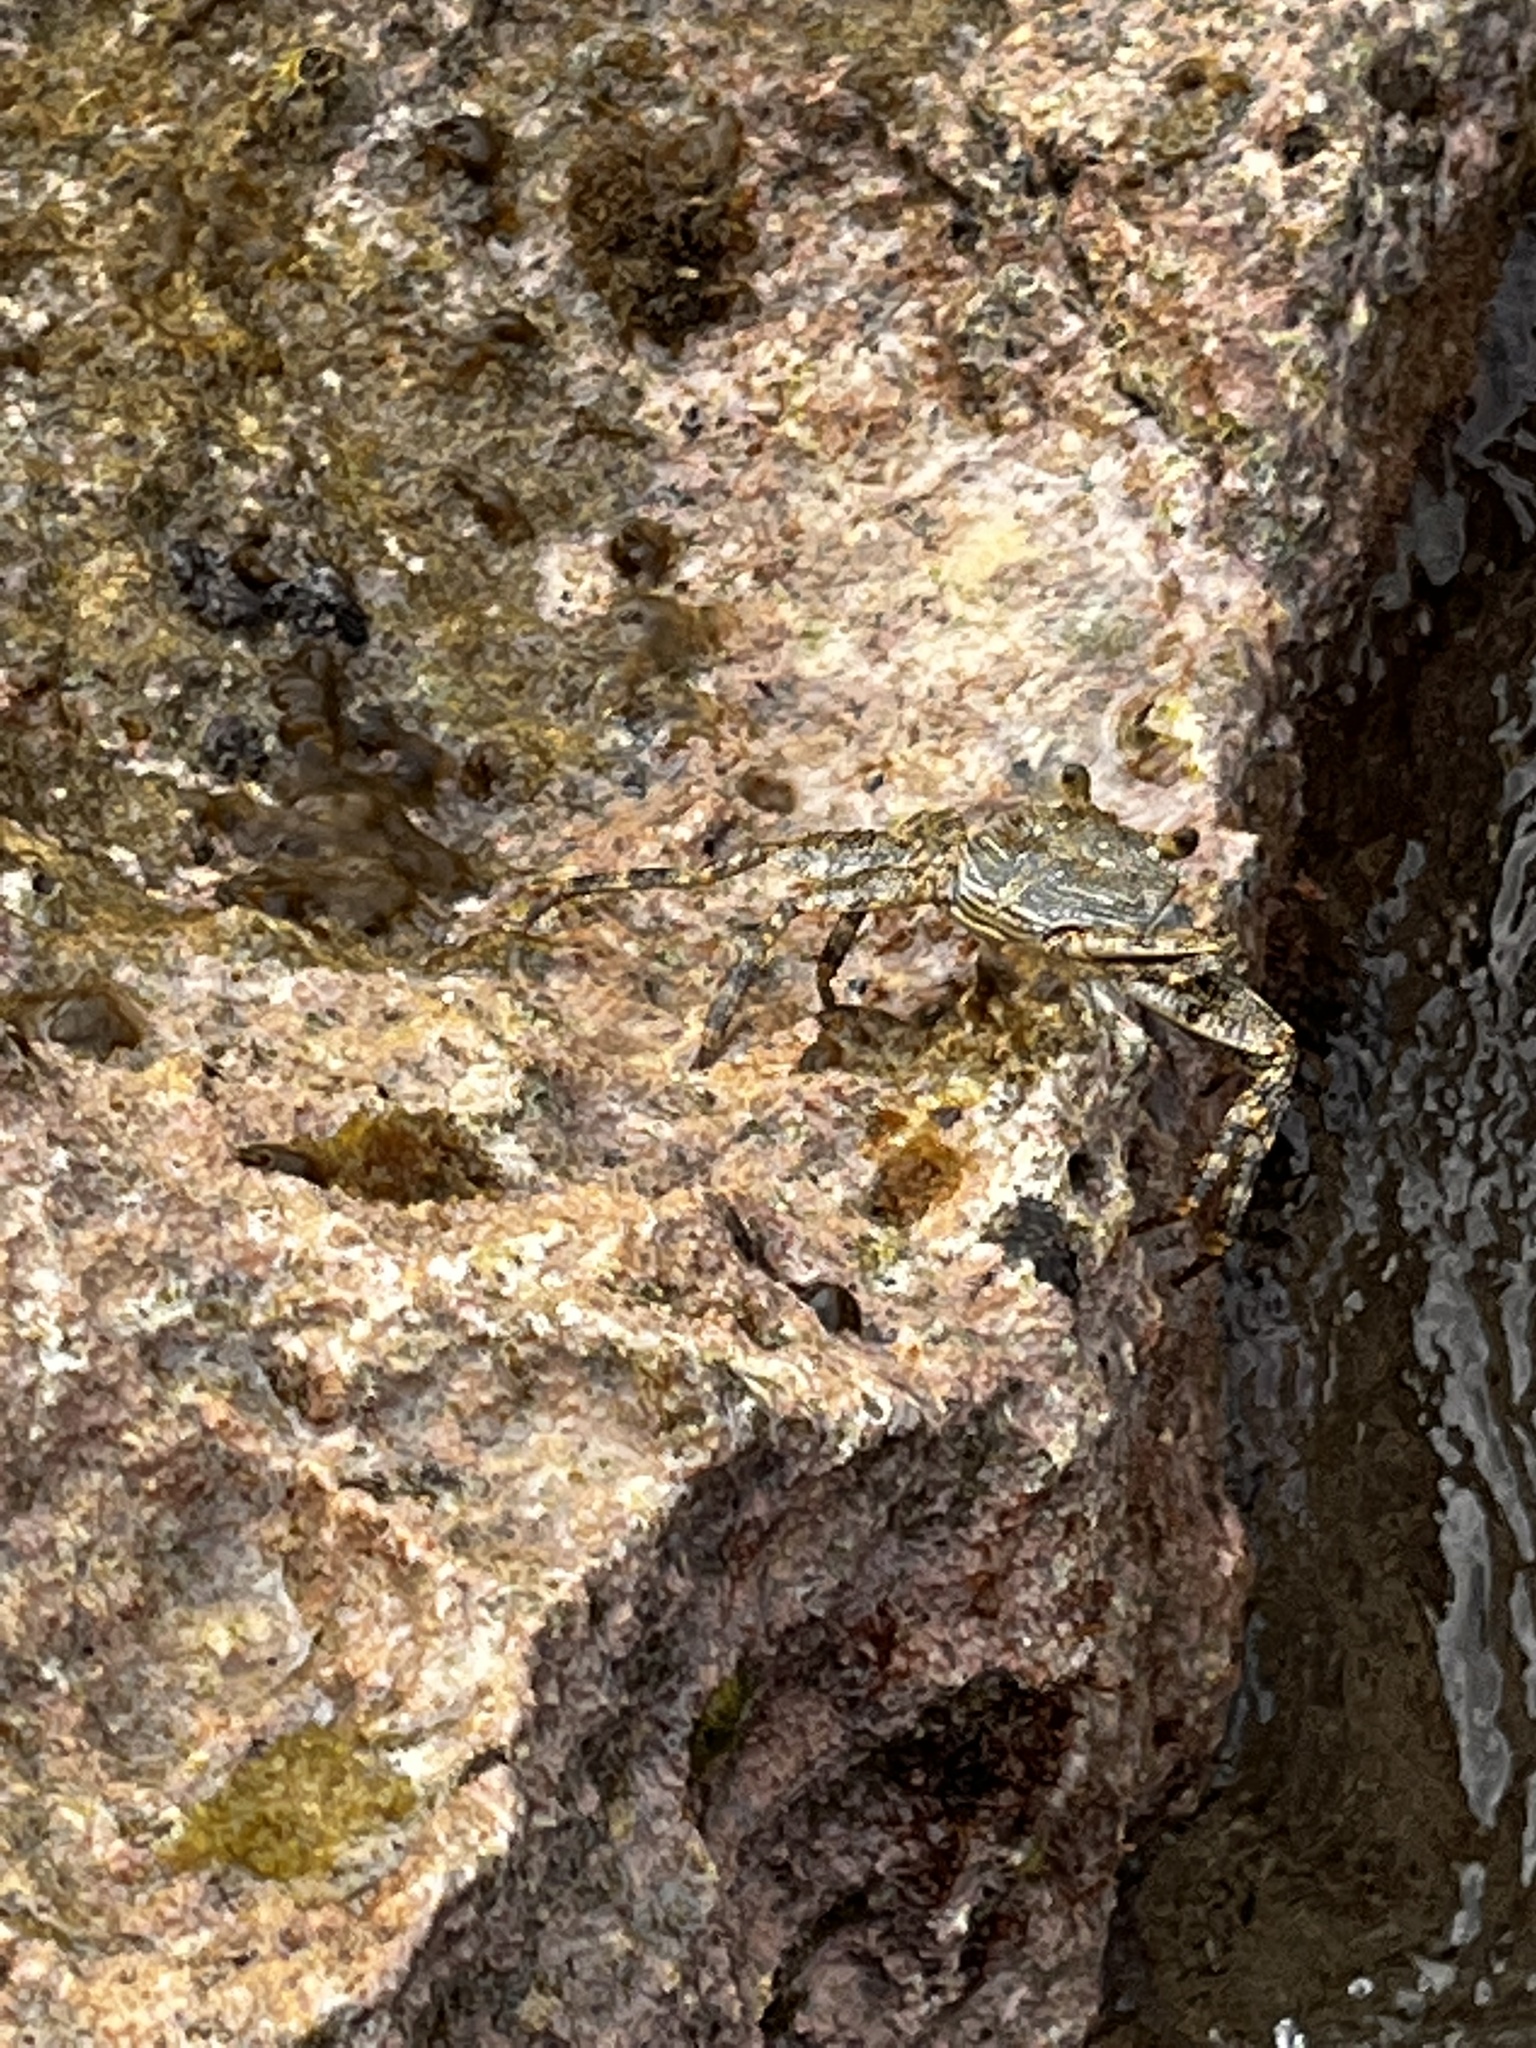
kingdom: Animalia
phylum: Arthropoda
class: Malacostraca
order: Decapoda
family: Grapsidae
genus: Grapsus
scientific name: Grapsus grapsus
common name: Sally lightfoot
